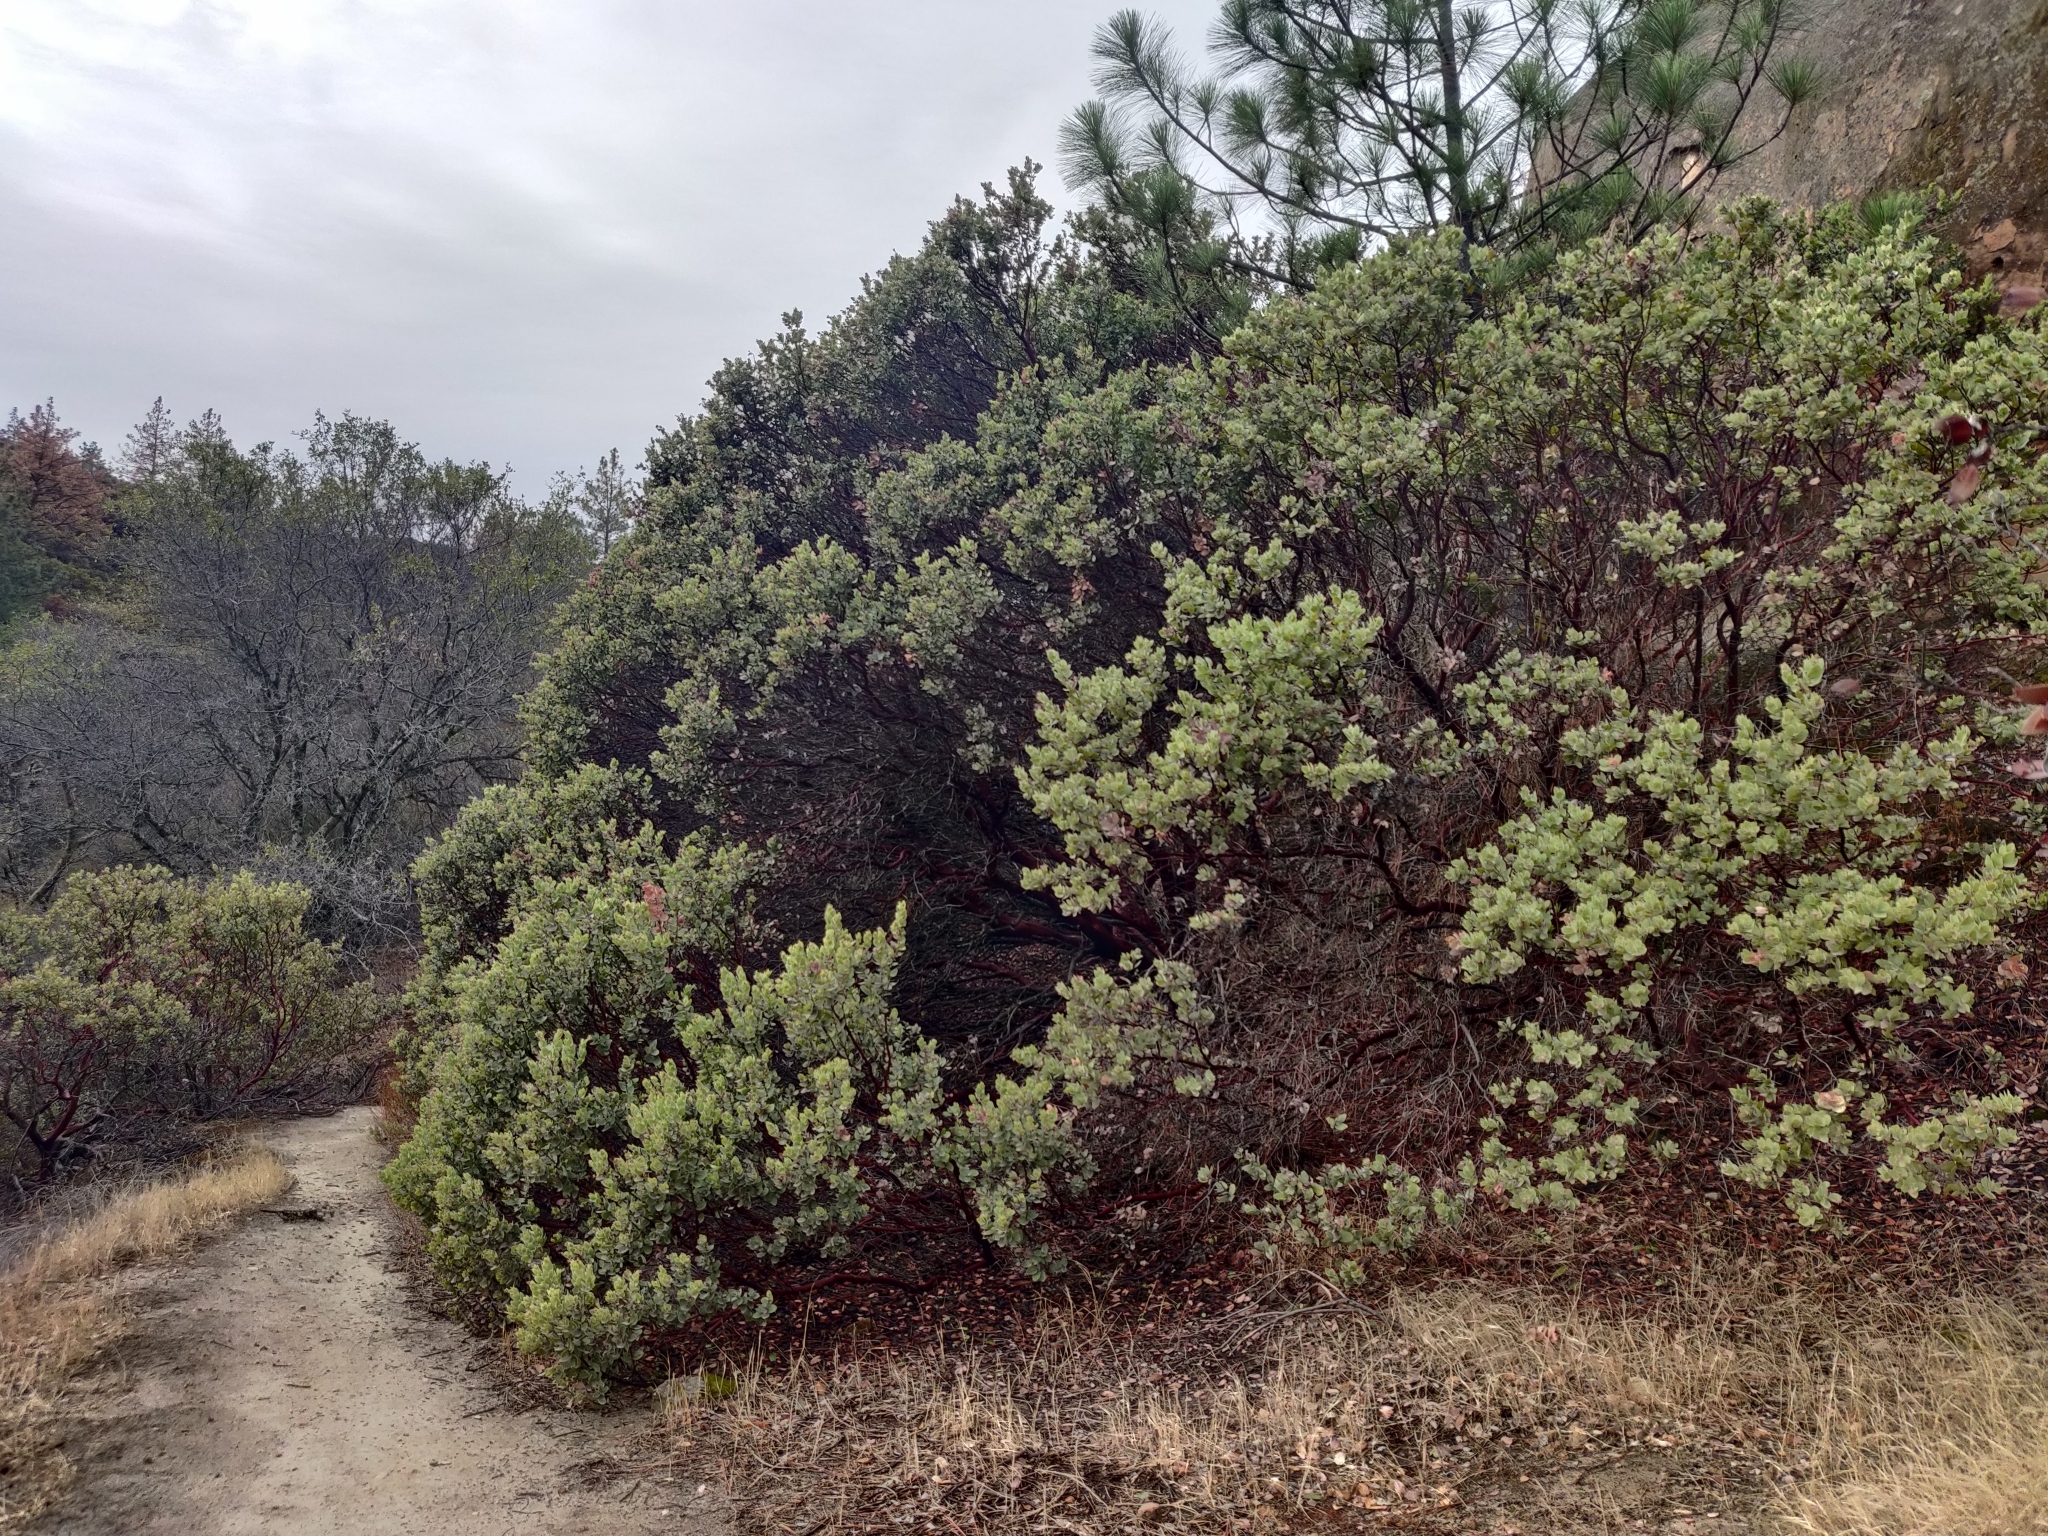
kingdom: Plantae
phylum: Tracheophyta
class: Magnoliopsida
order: Ericales
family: Ericaceae
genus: Arctostaphylos
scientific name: Arctostaphylos auriculata
